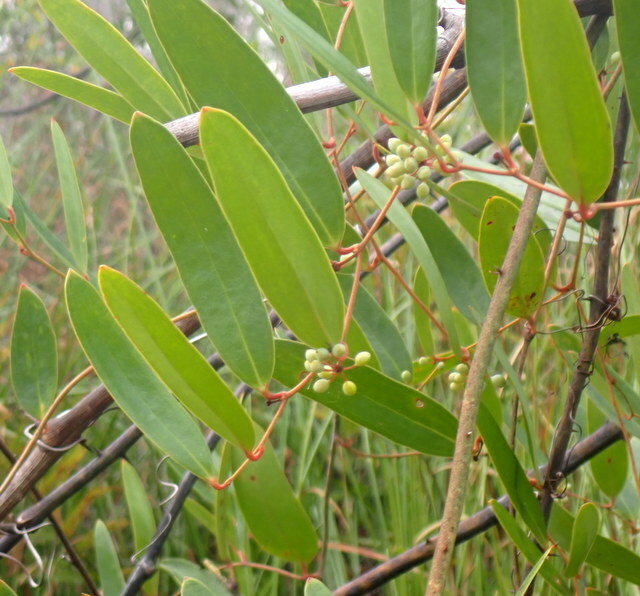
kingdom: Plantae
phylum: Tracheophyta
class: Liliopsida
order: Liliales
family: Smilacaceae
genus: Smilax
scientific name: Smilax laurifolia
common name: Bamboovine
